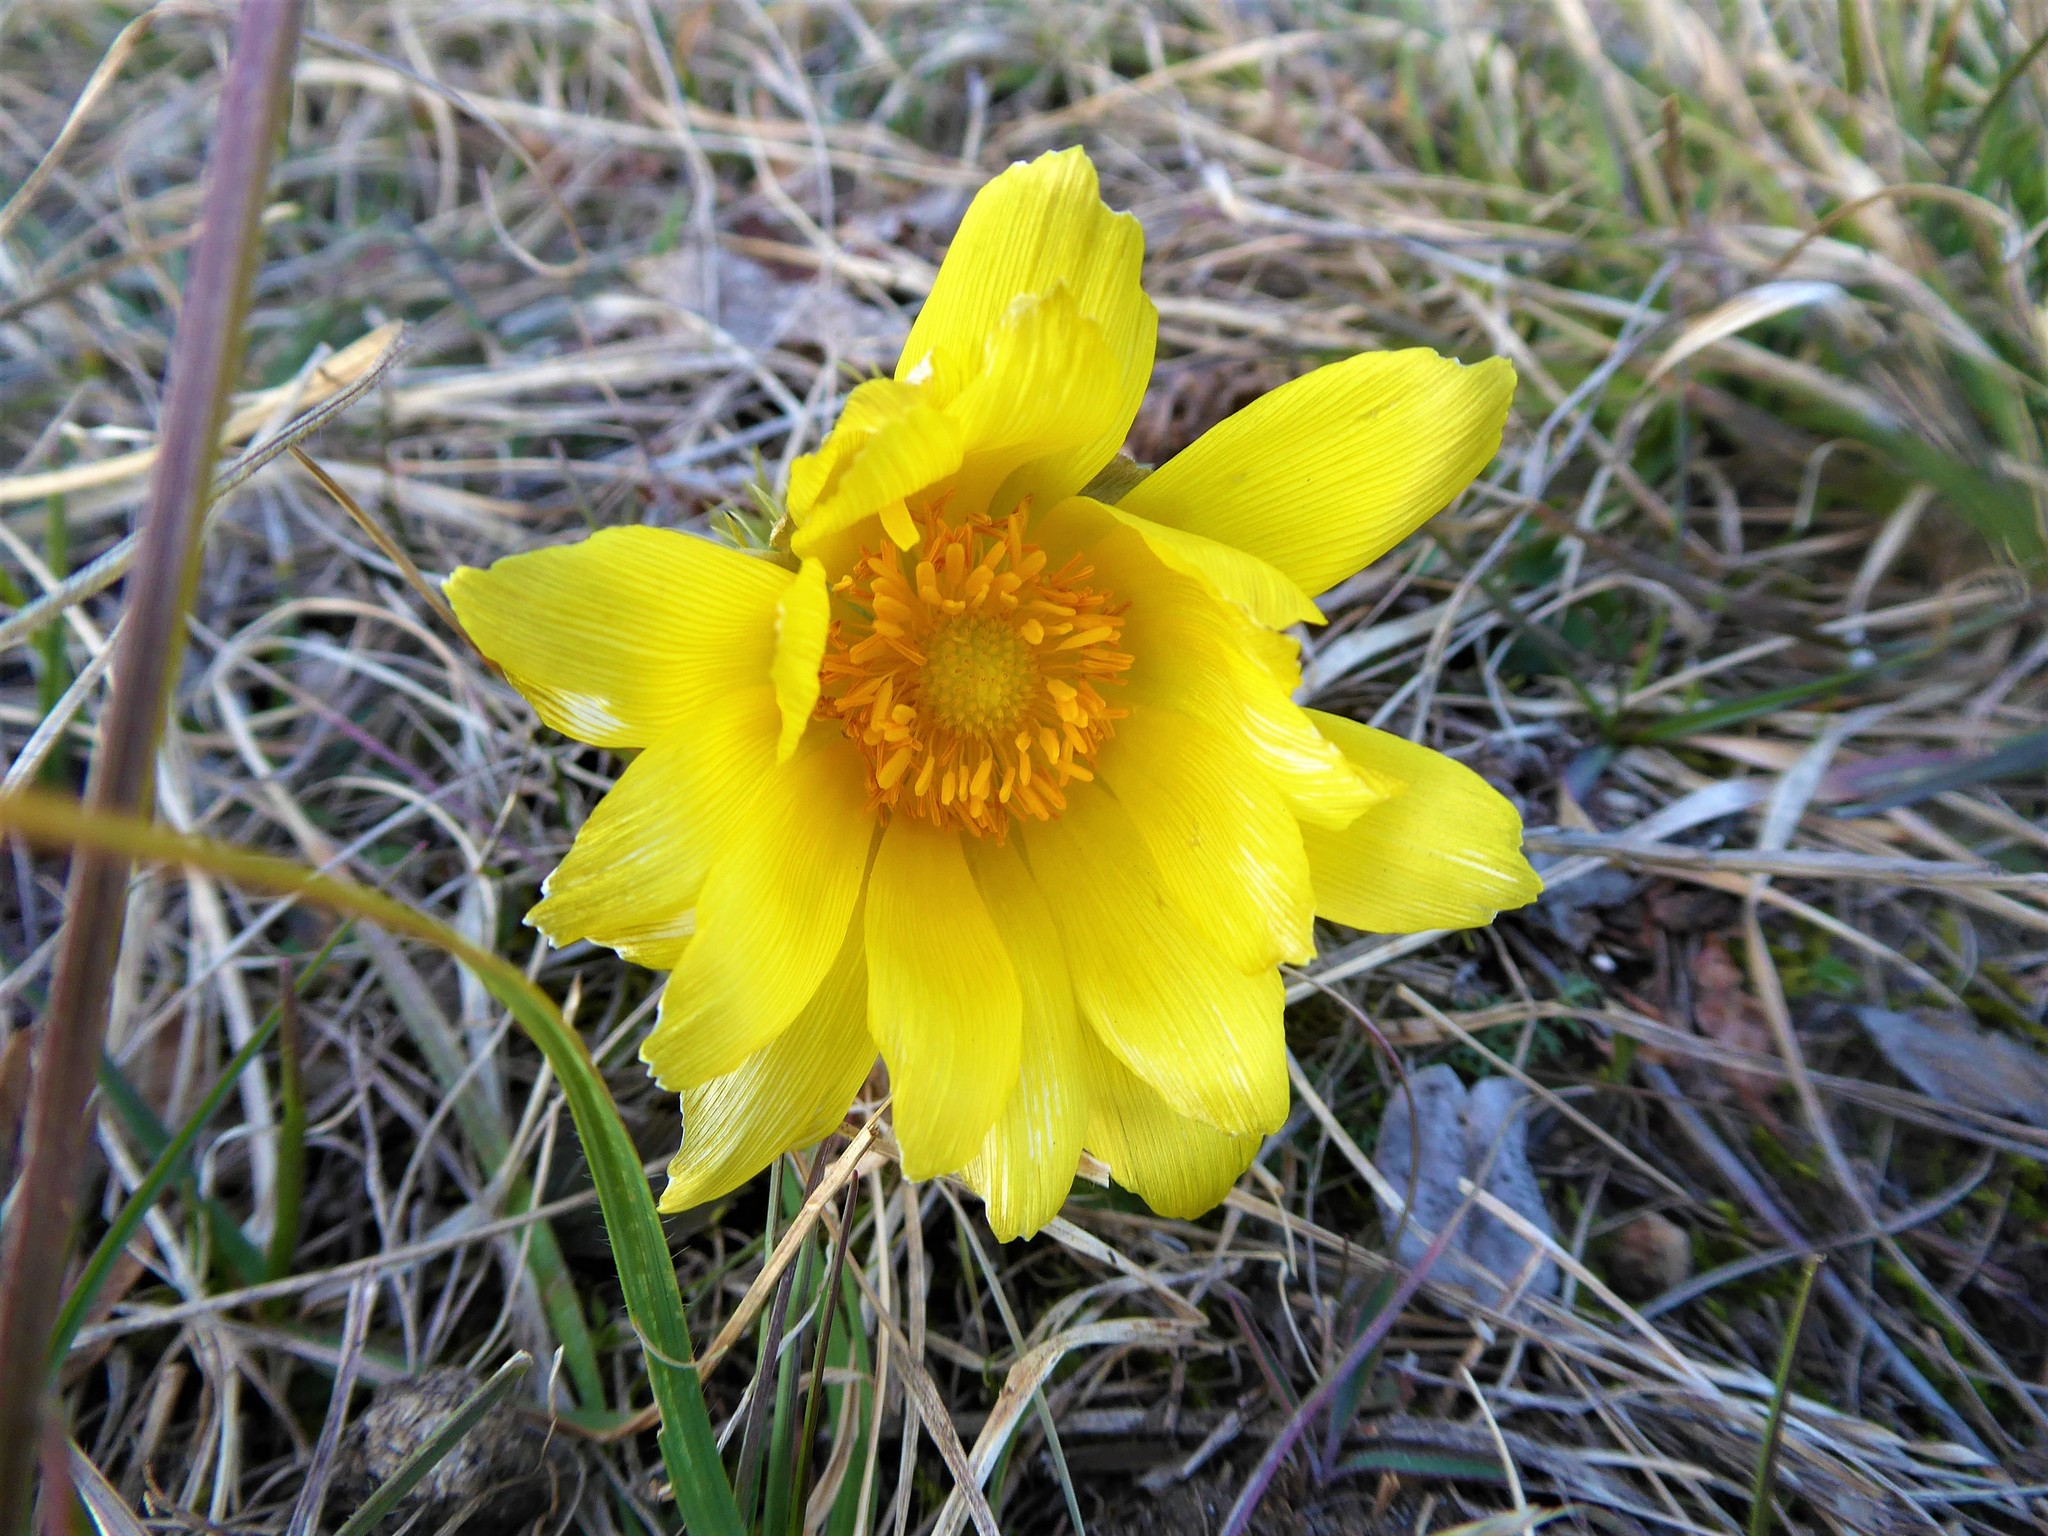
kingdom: Plantae
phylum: Tracheophyta
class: Magnoliopsida
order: Ranunculales
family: Ranunculaceae
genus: Adonis
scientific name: Adonis vernalis
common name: Yellow pheasants-eye
